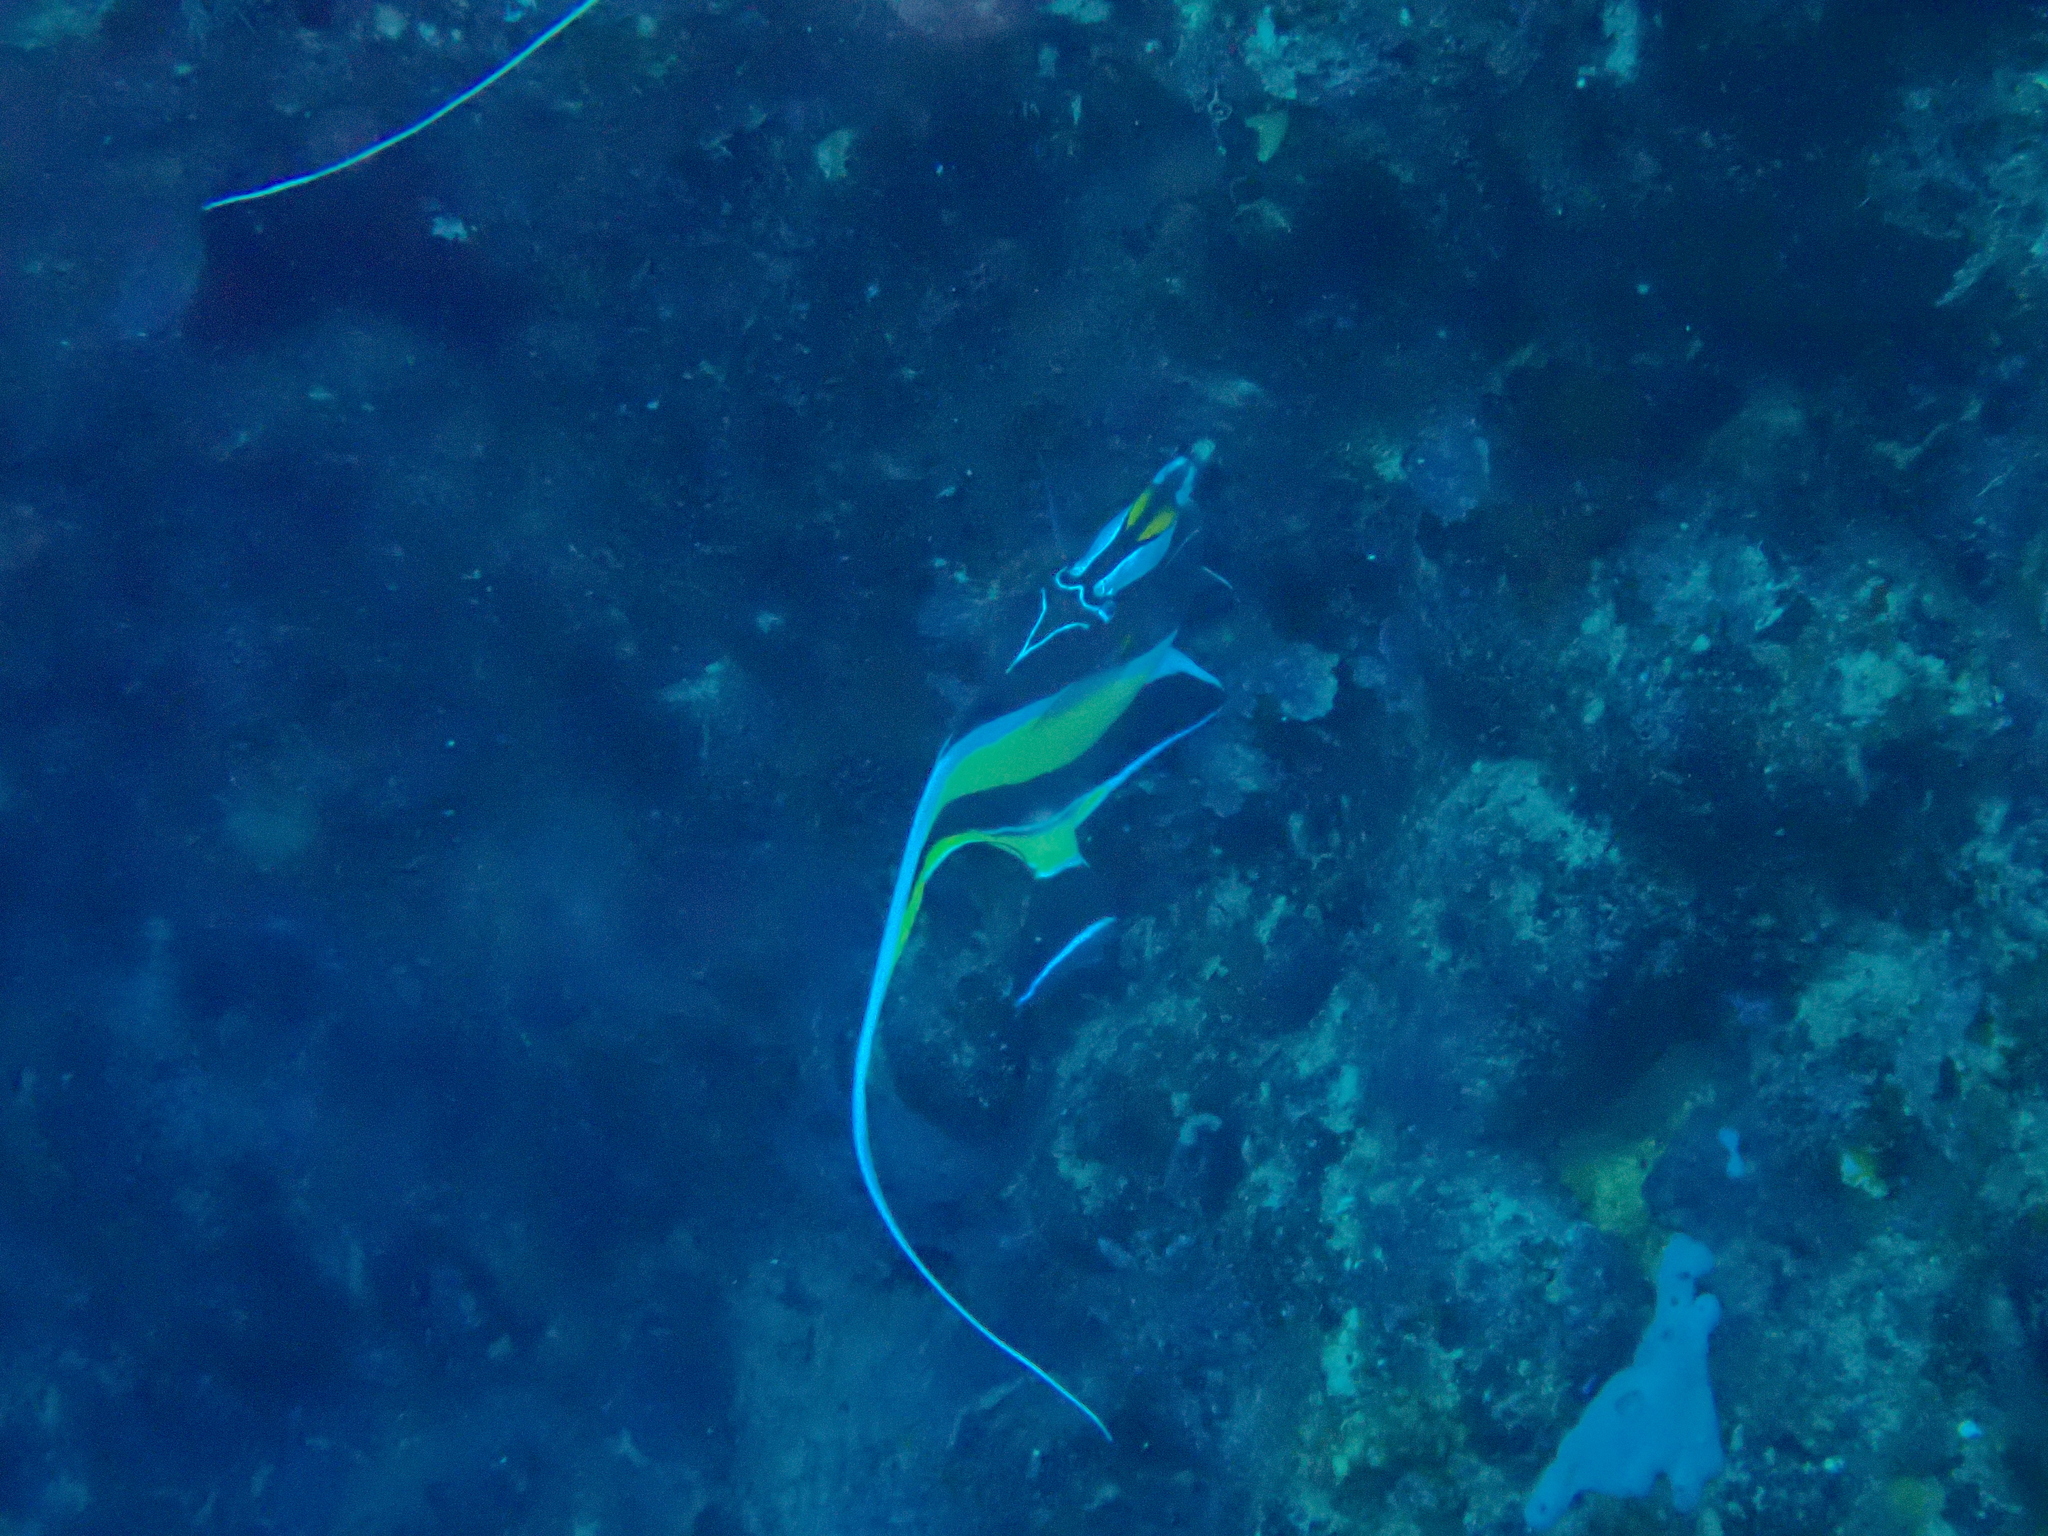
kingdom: Animalia
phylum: Chordata
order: Perciformes
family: Zanclidae
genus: Zanclus
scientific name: Zanclus cornutus
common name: Moorish idol
